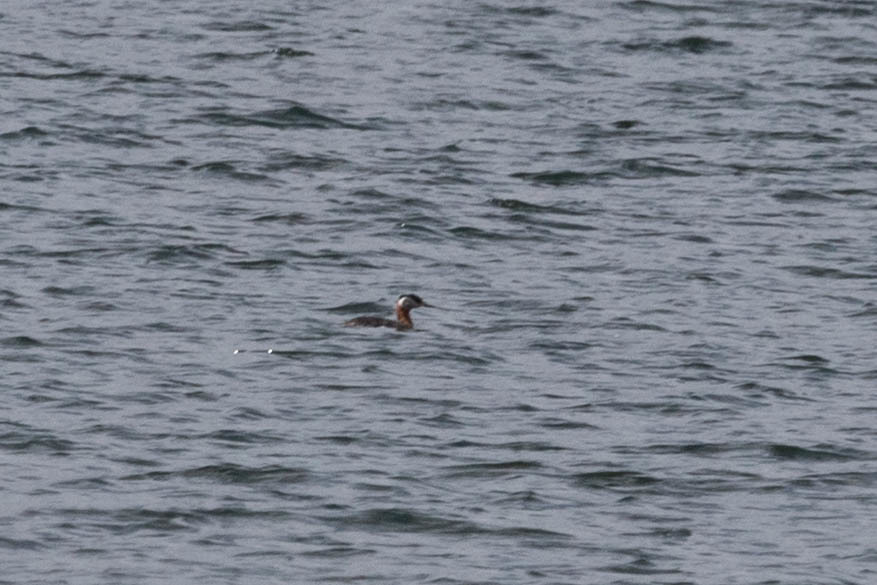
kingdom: Animalia
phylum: Chordata
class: Aves
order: Podicipediformes
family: Podicipedidae
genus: Podiceps
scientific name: Podiceps grisegena
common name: Red-necked grebe
